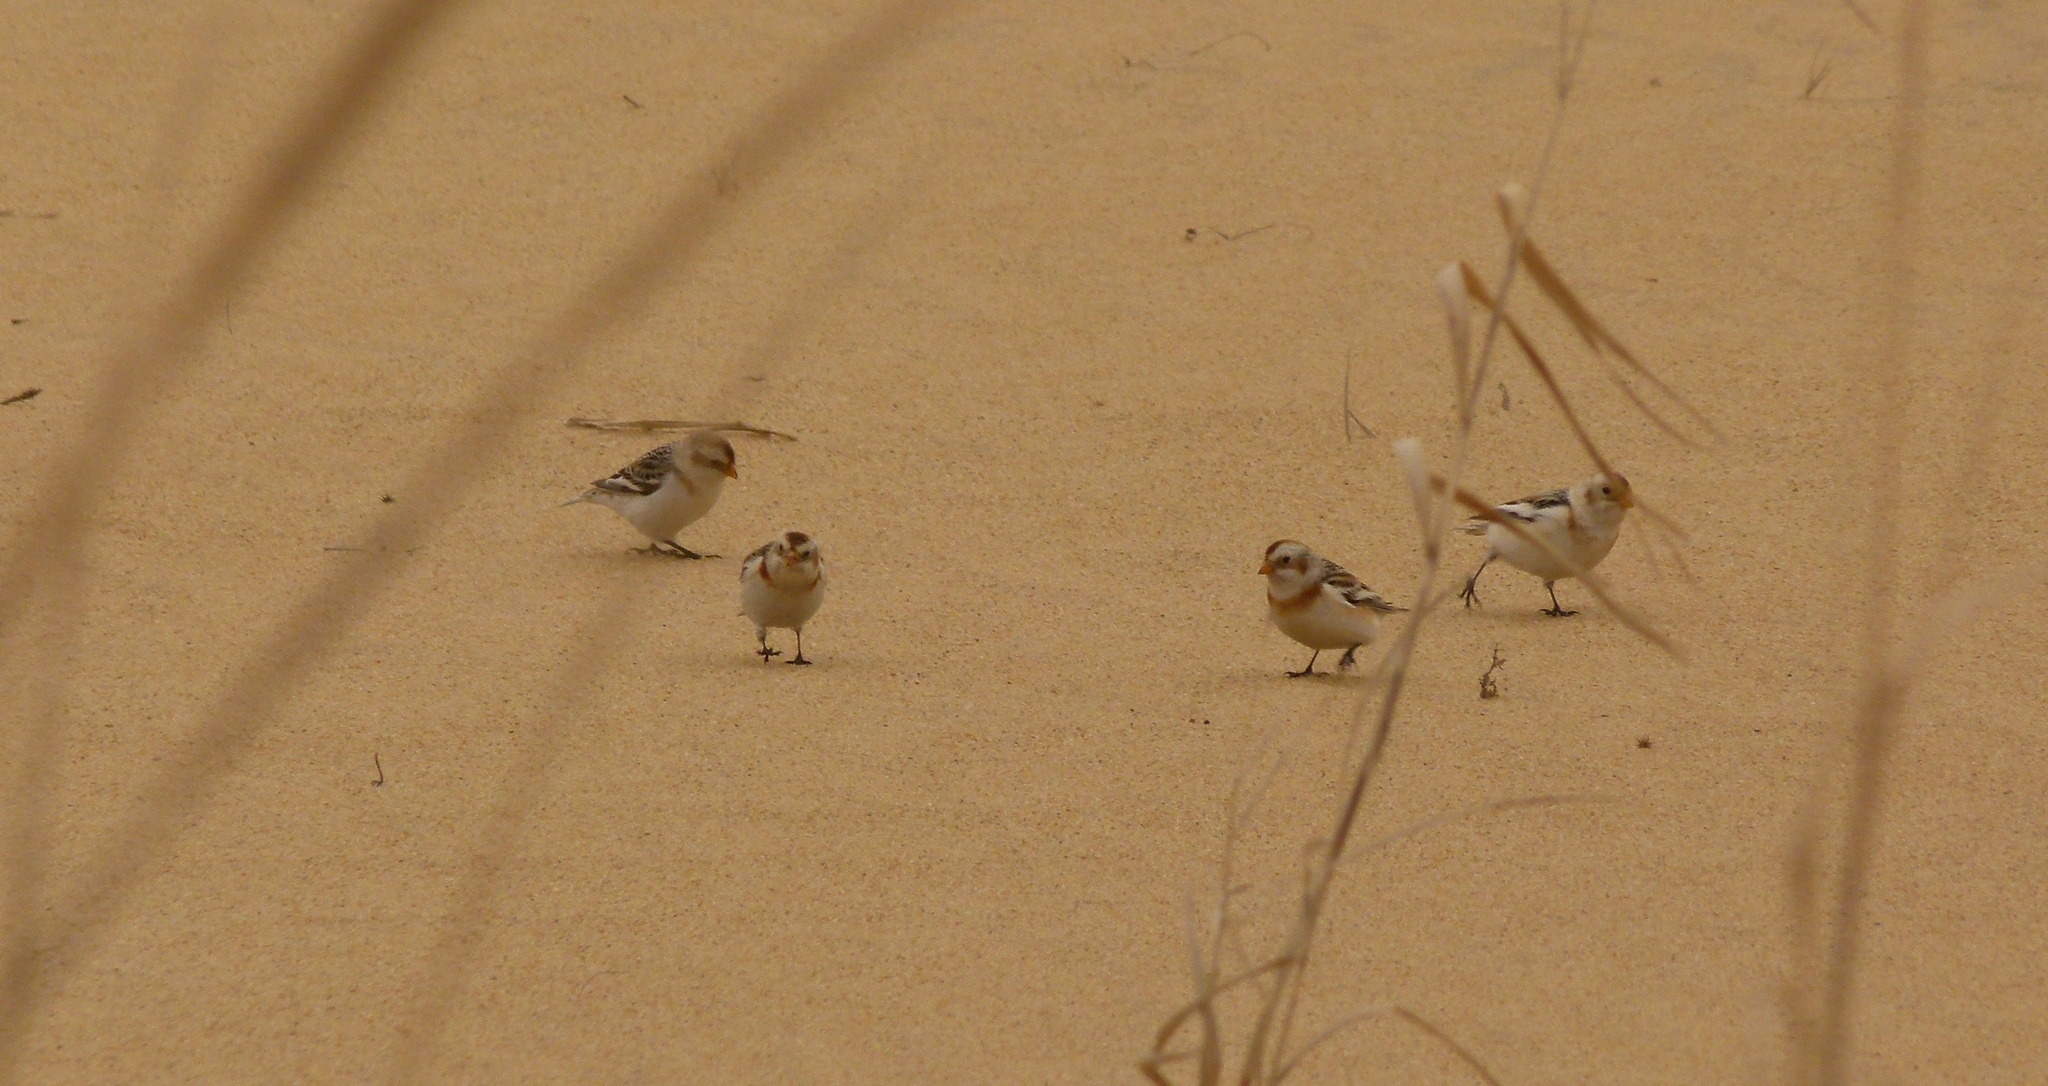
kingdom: Animalia
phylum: Chordata
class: Aves
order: Passeriformes
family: Calcariidae
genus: Plectrophenax
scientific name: Plectrophenax nivalis
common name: Snow bunting
